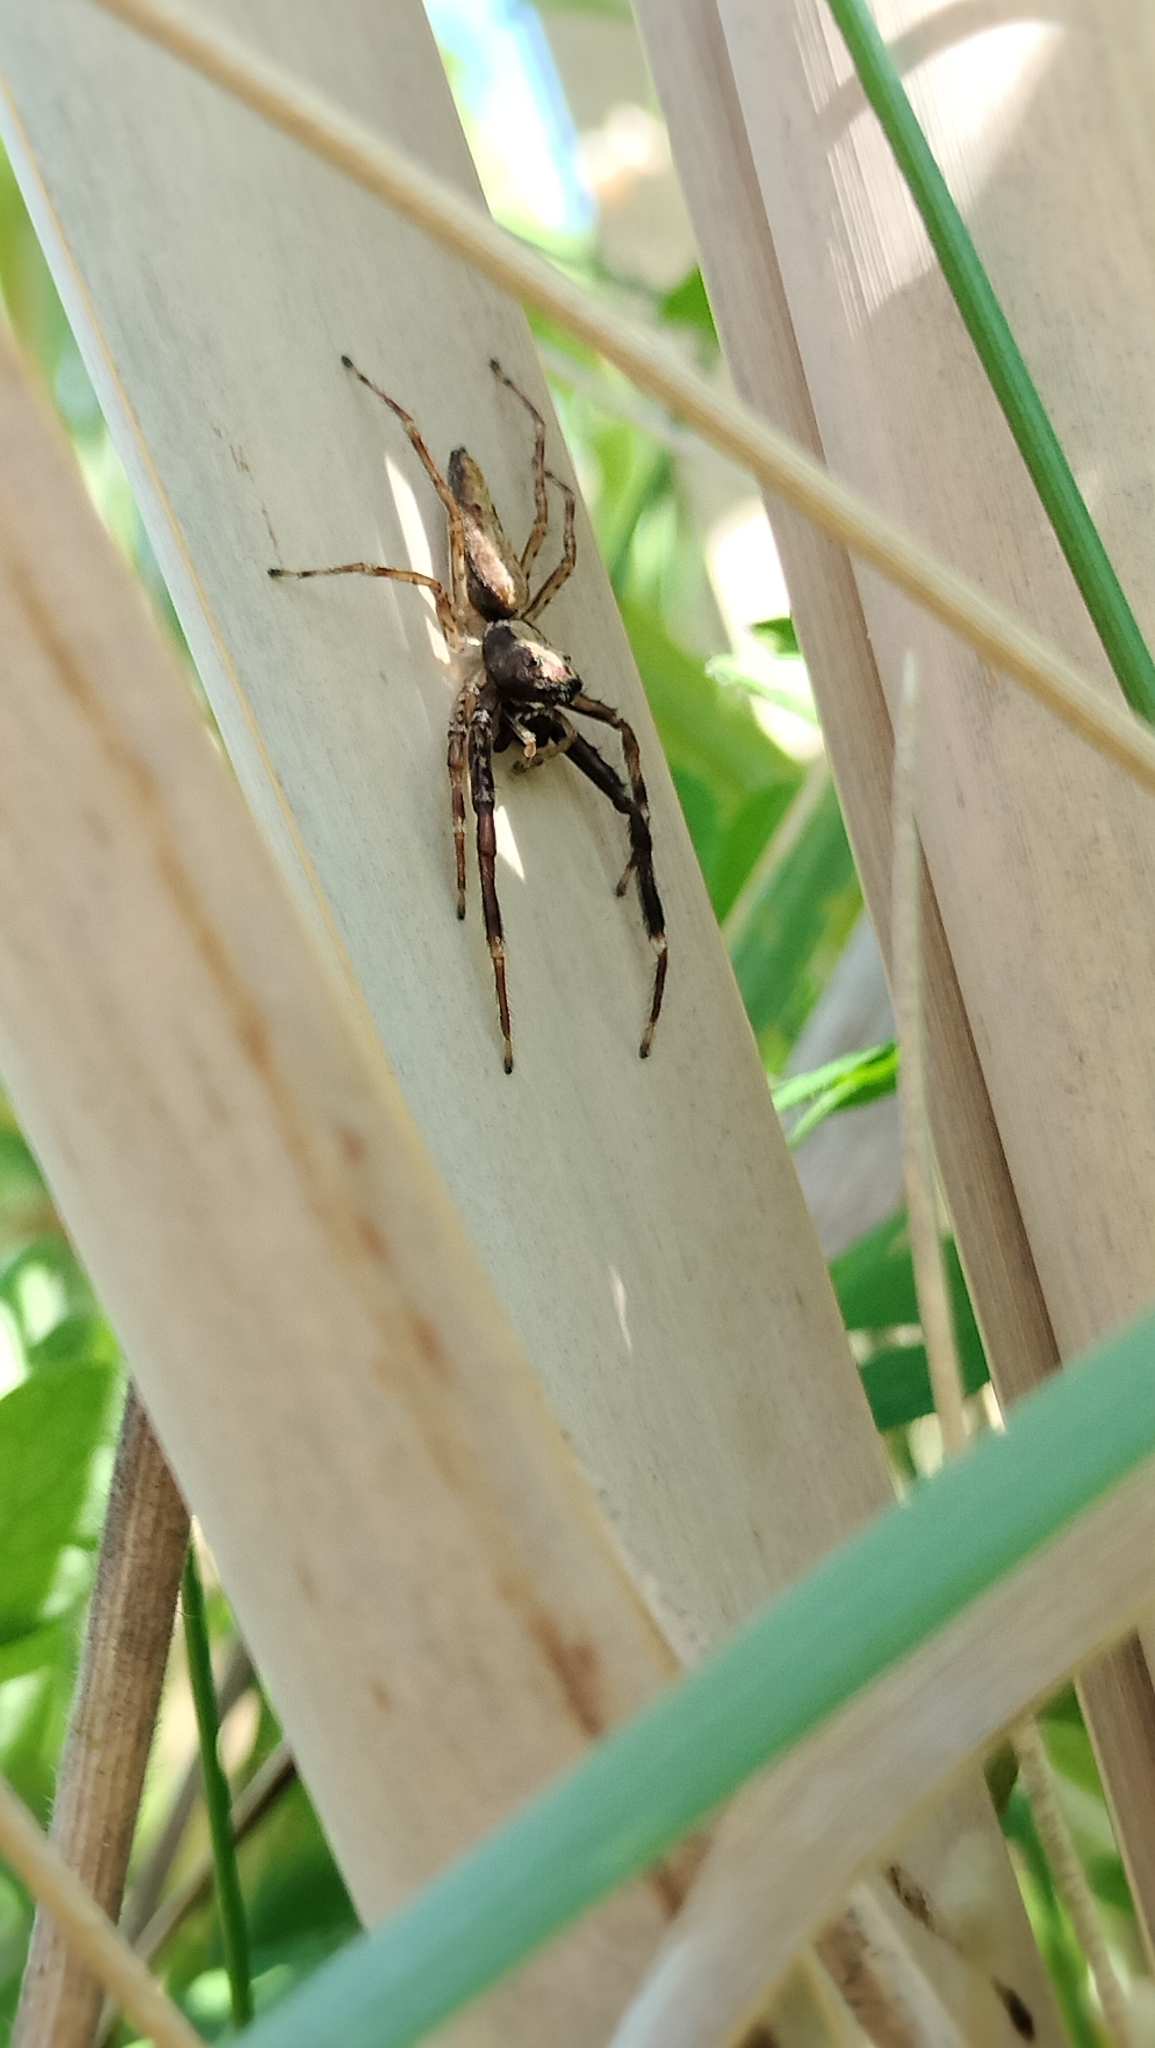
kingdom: Animalia
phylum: Arthropoda
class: Arachnida
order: Araneae
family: Salticidae
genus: Helpis
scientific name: Helpis minitabunda
